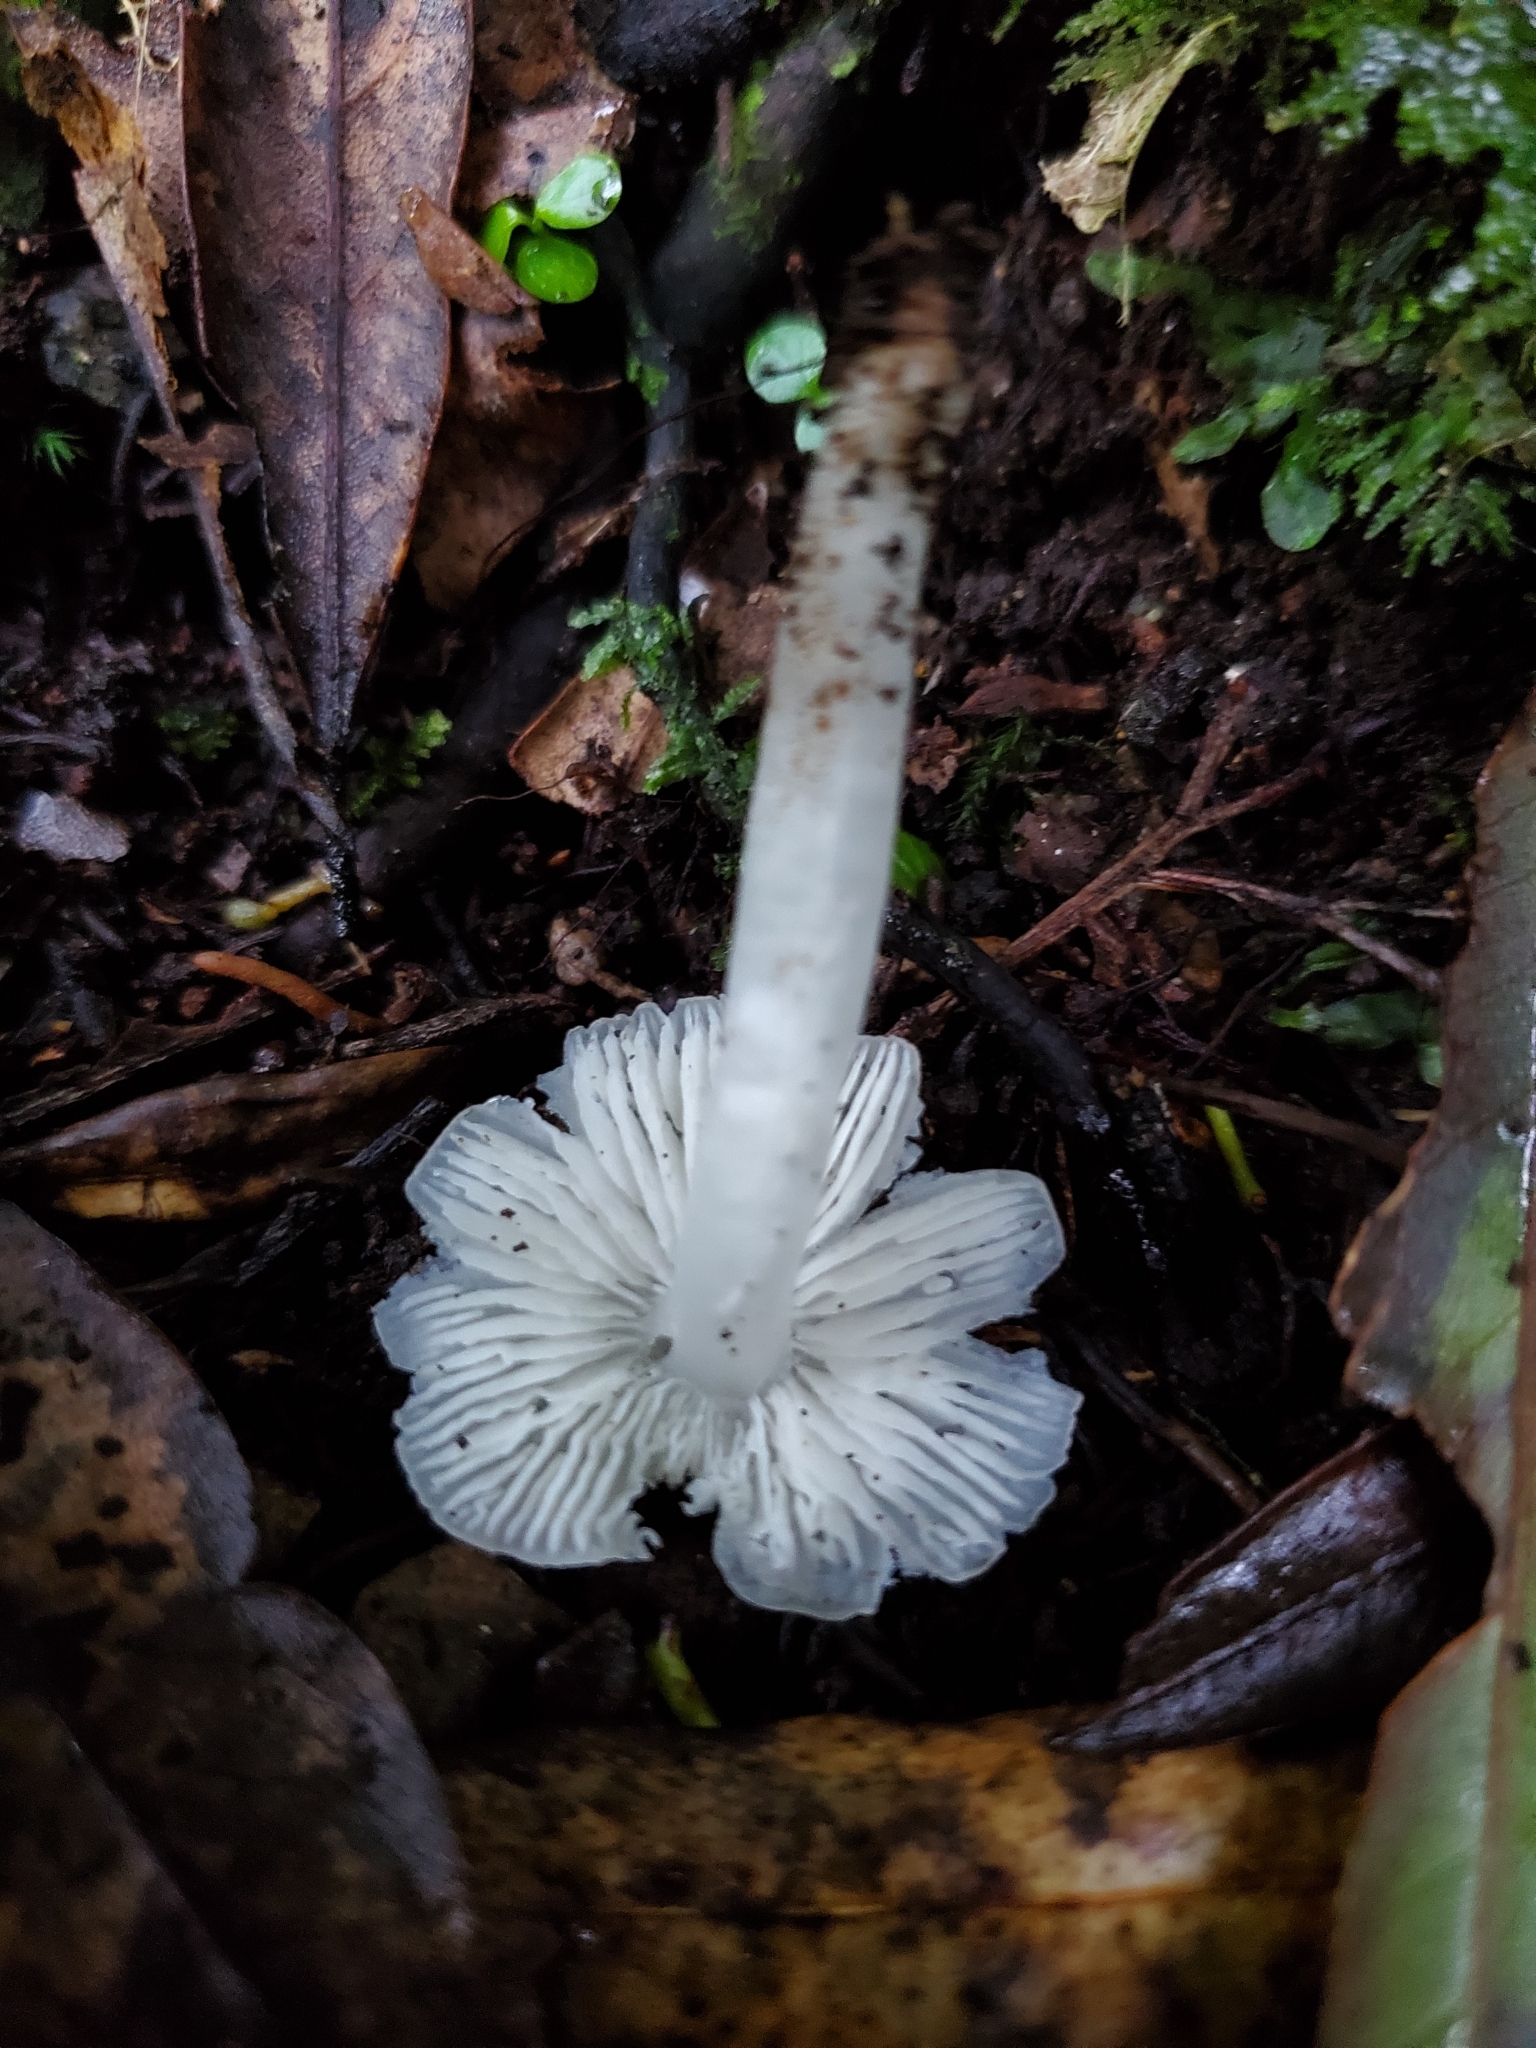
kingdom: Fungi
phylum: Basidiomycota
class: Agaricomycetes
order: Agaricales
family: Hygrophoraceae
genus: Humidicutis
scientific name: Humidicutis mavis
